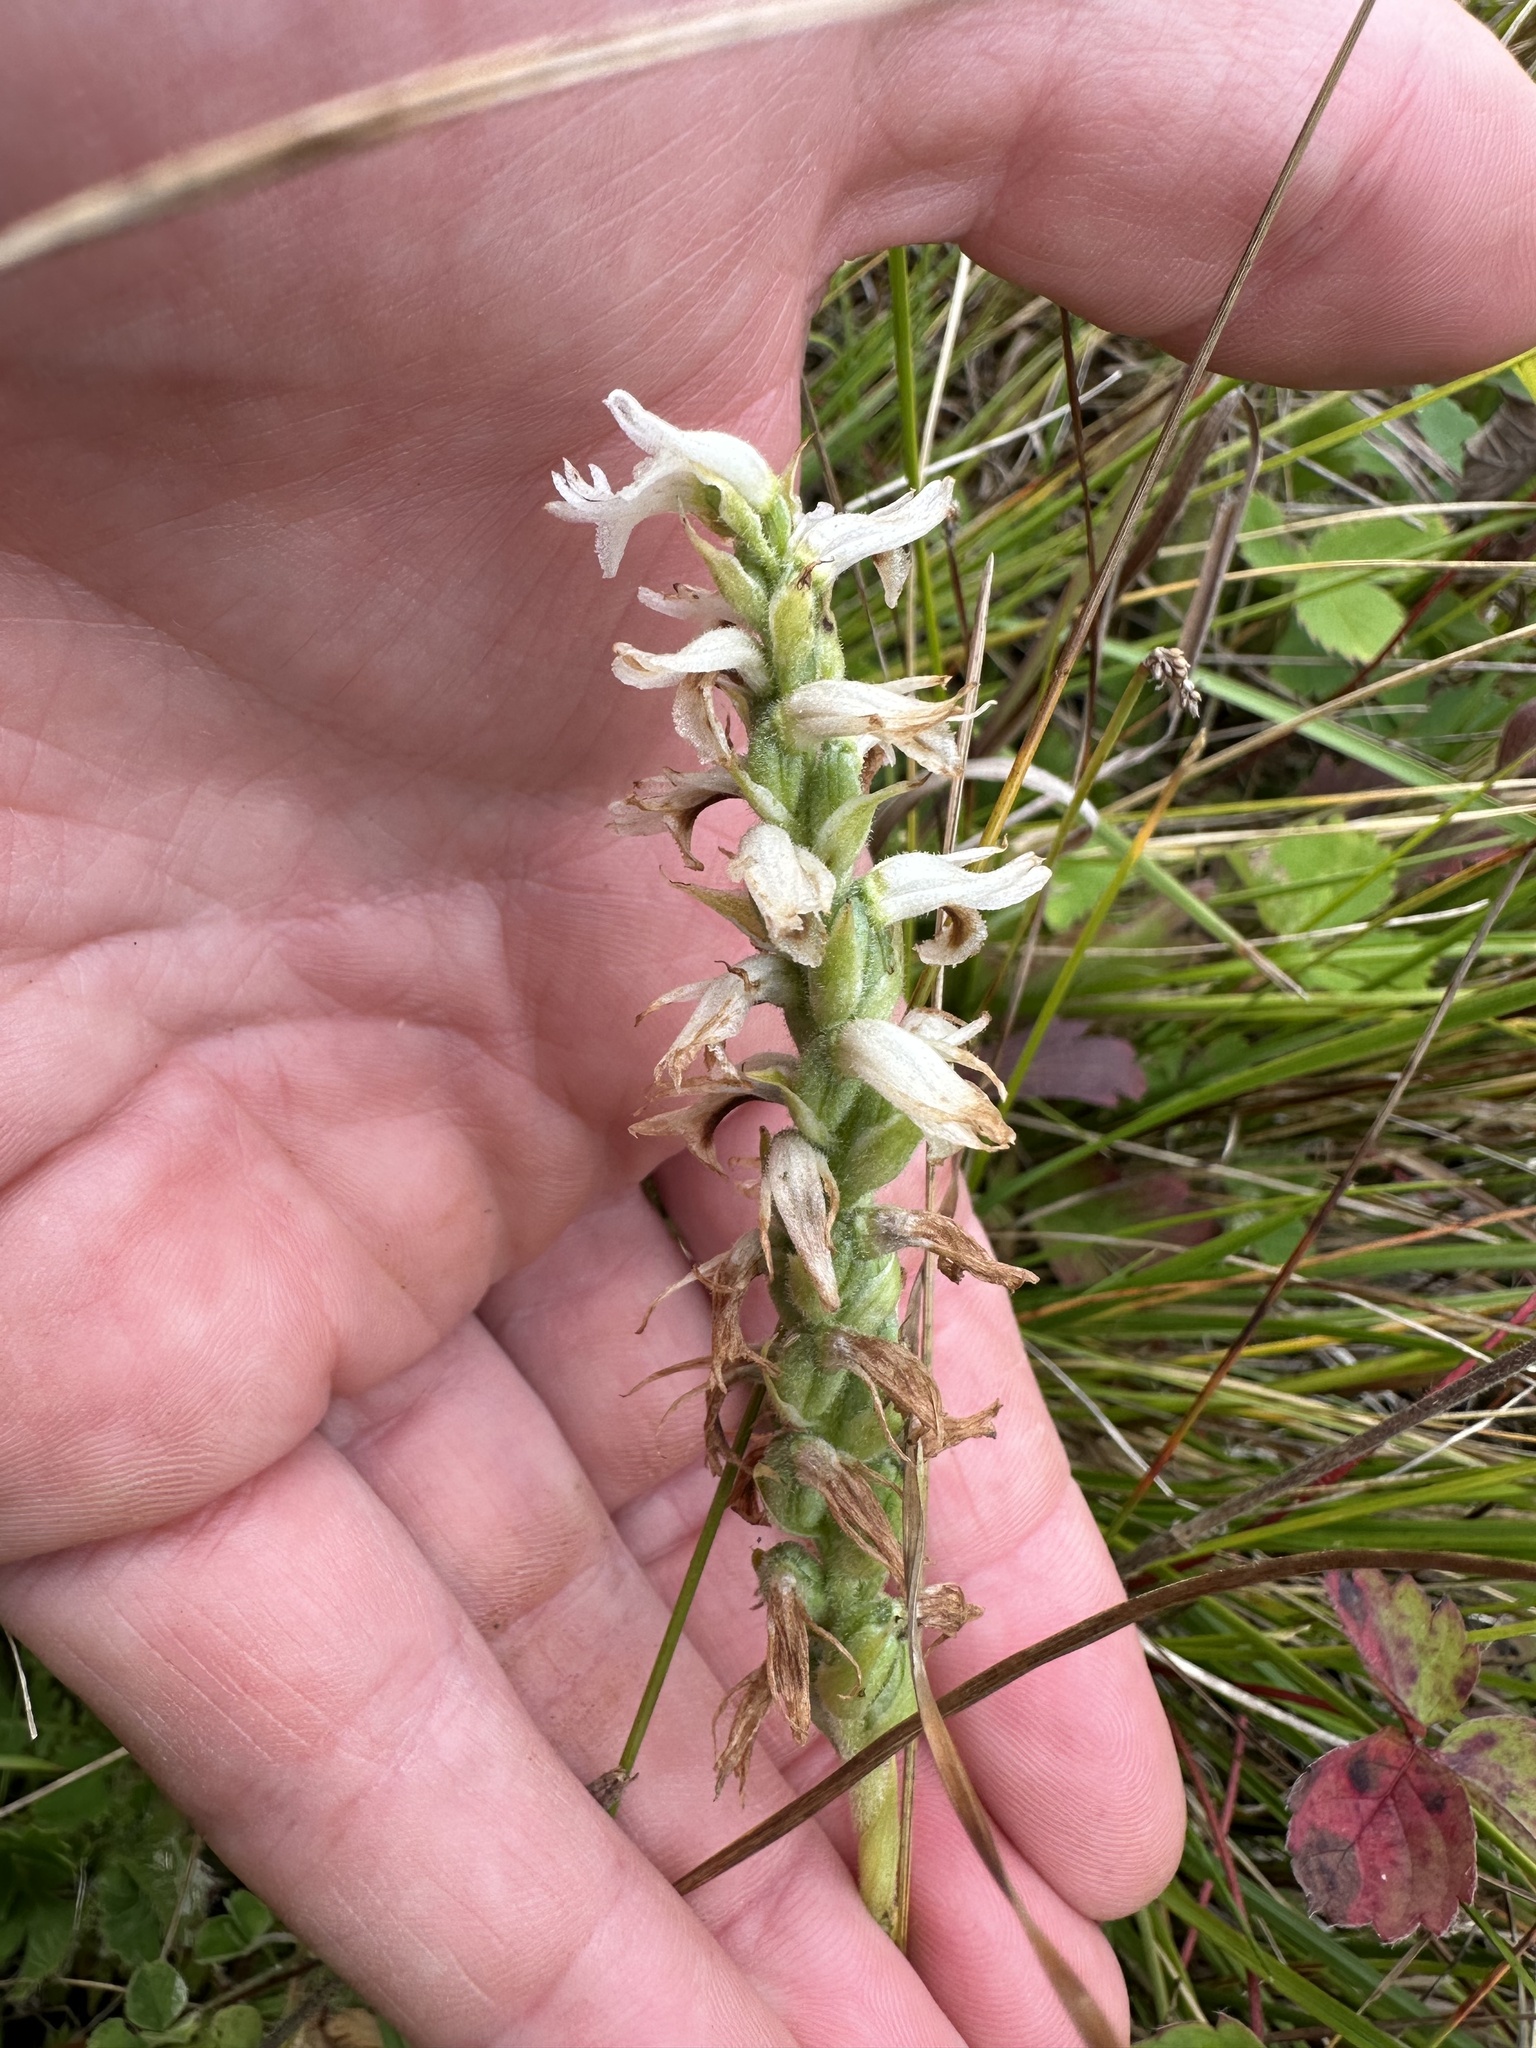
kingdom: Plantae
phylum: Tracheophyta
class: Liliopsida
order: Asparagales
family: Orchidaceae
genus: Spiranthes
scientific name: Spiranthes incurva
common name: Sphinx ladies'-tresses
